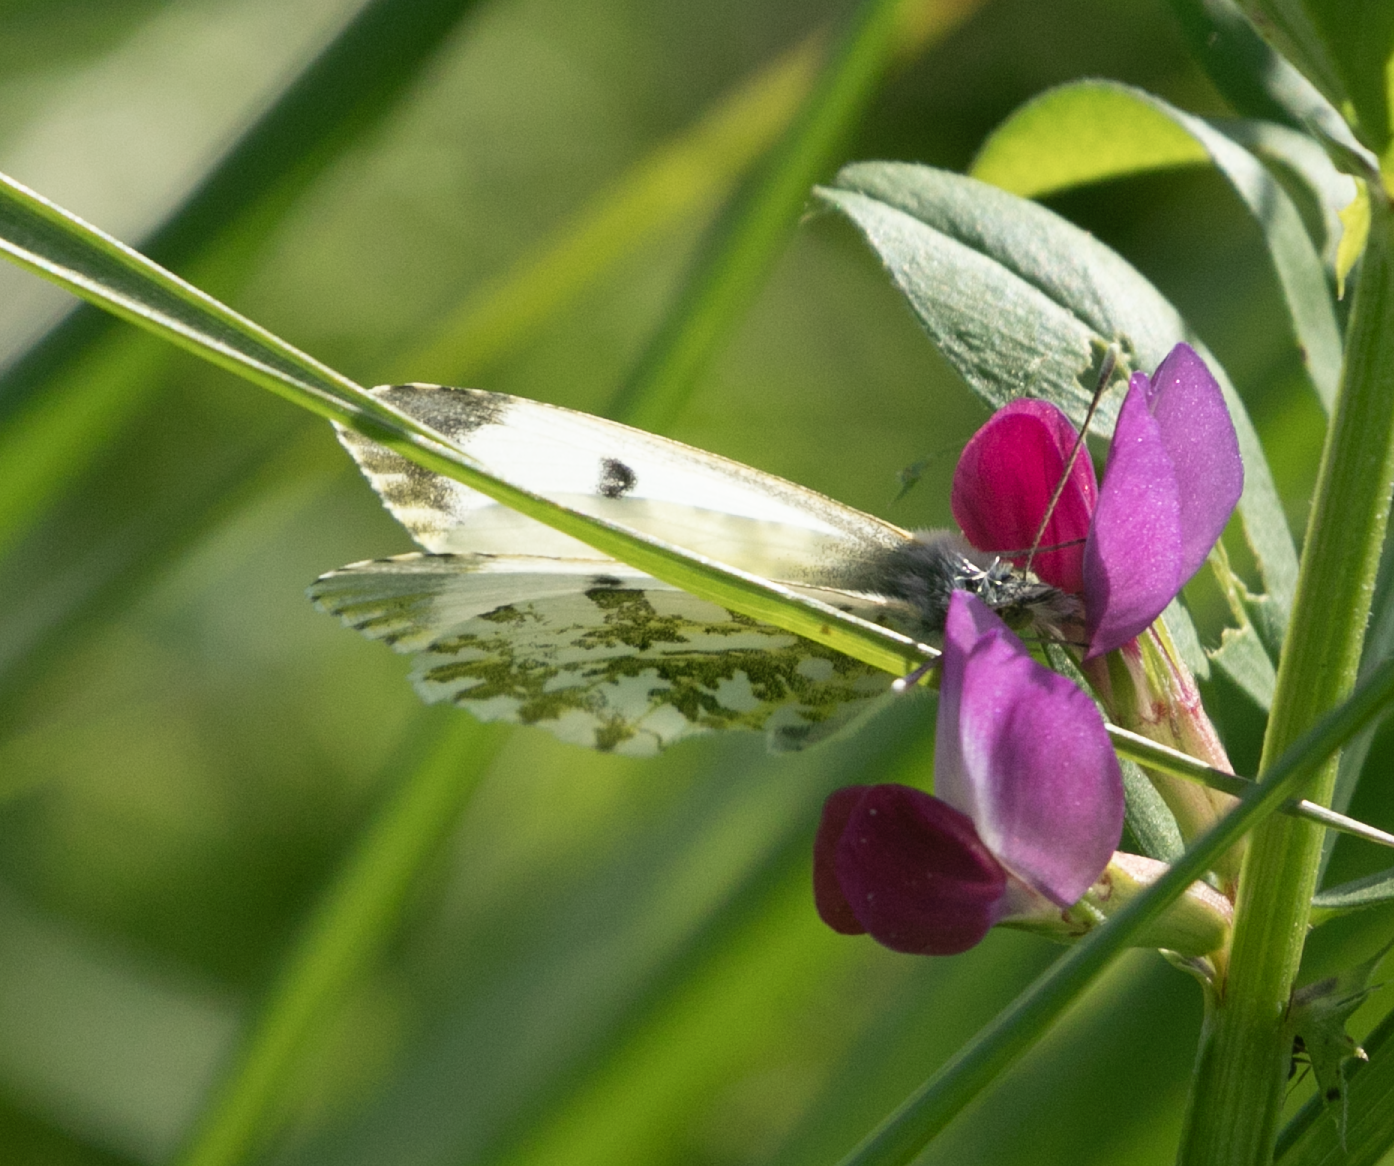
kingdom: Animalia
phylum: Arthropoda
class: Insecta
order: Lepidoptera
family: Pieridae
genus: Anthocharis
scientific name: Anthocharis cardamines
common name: Orange-tip
